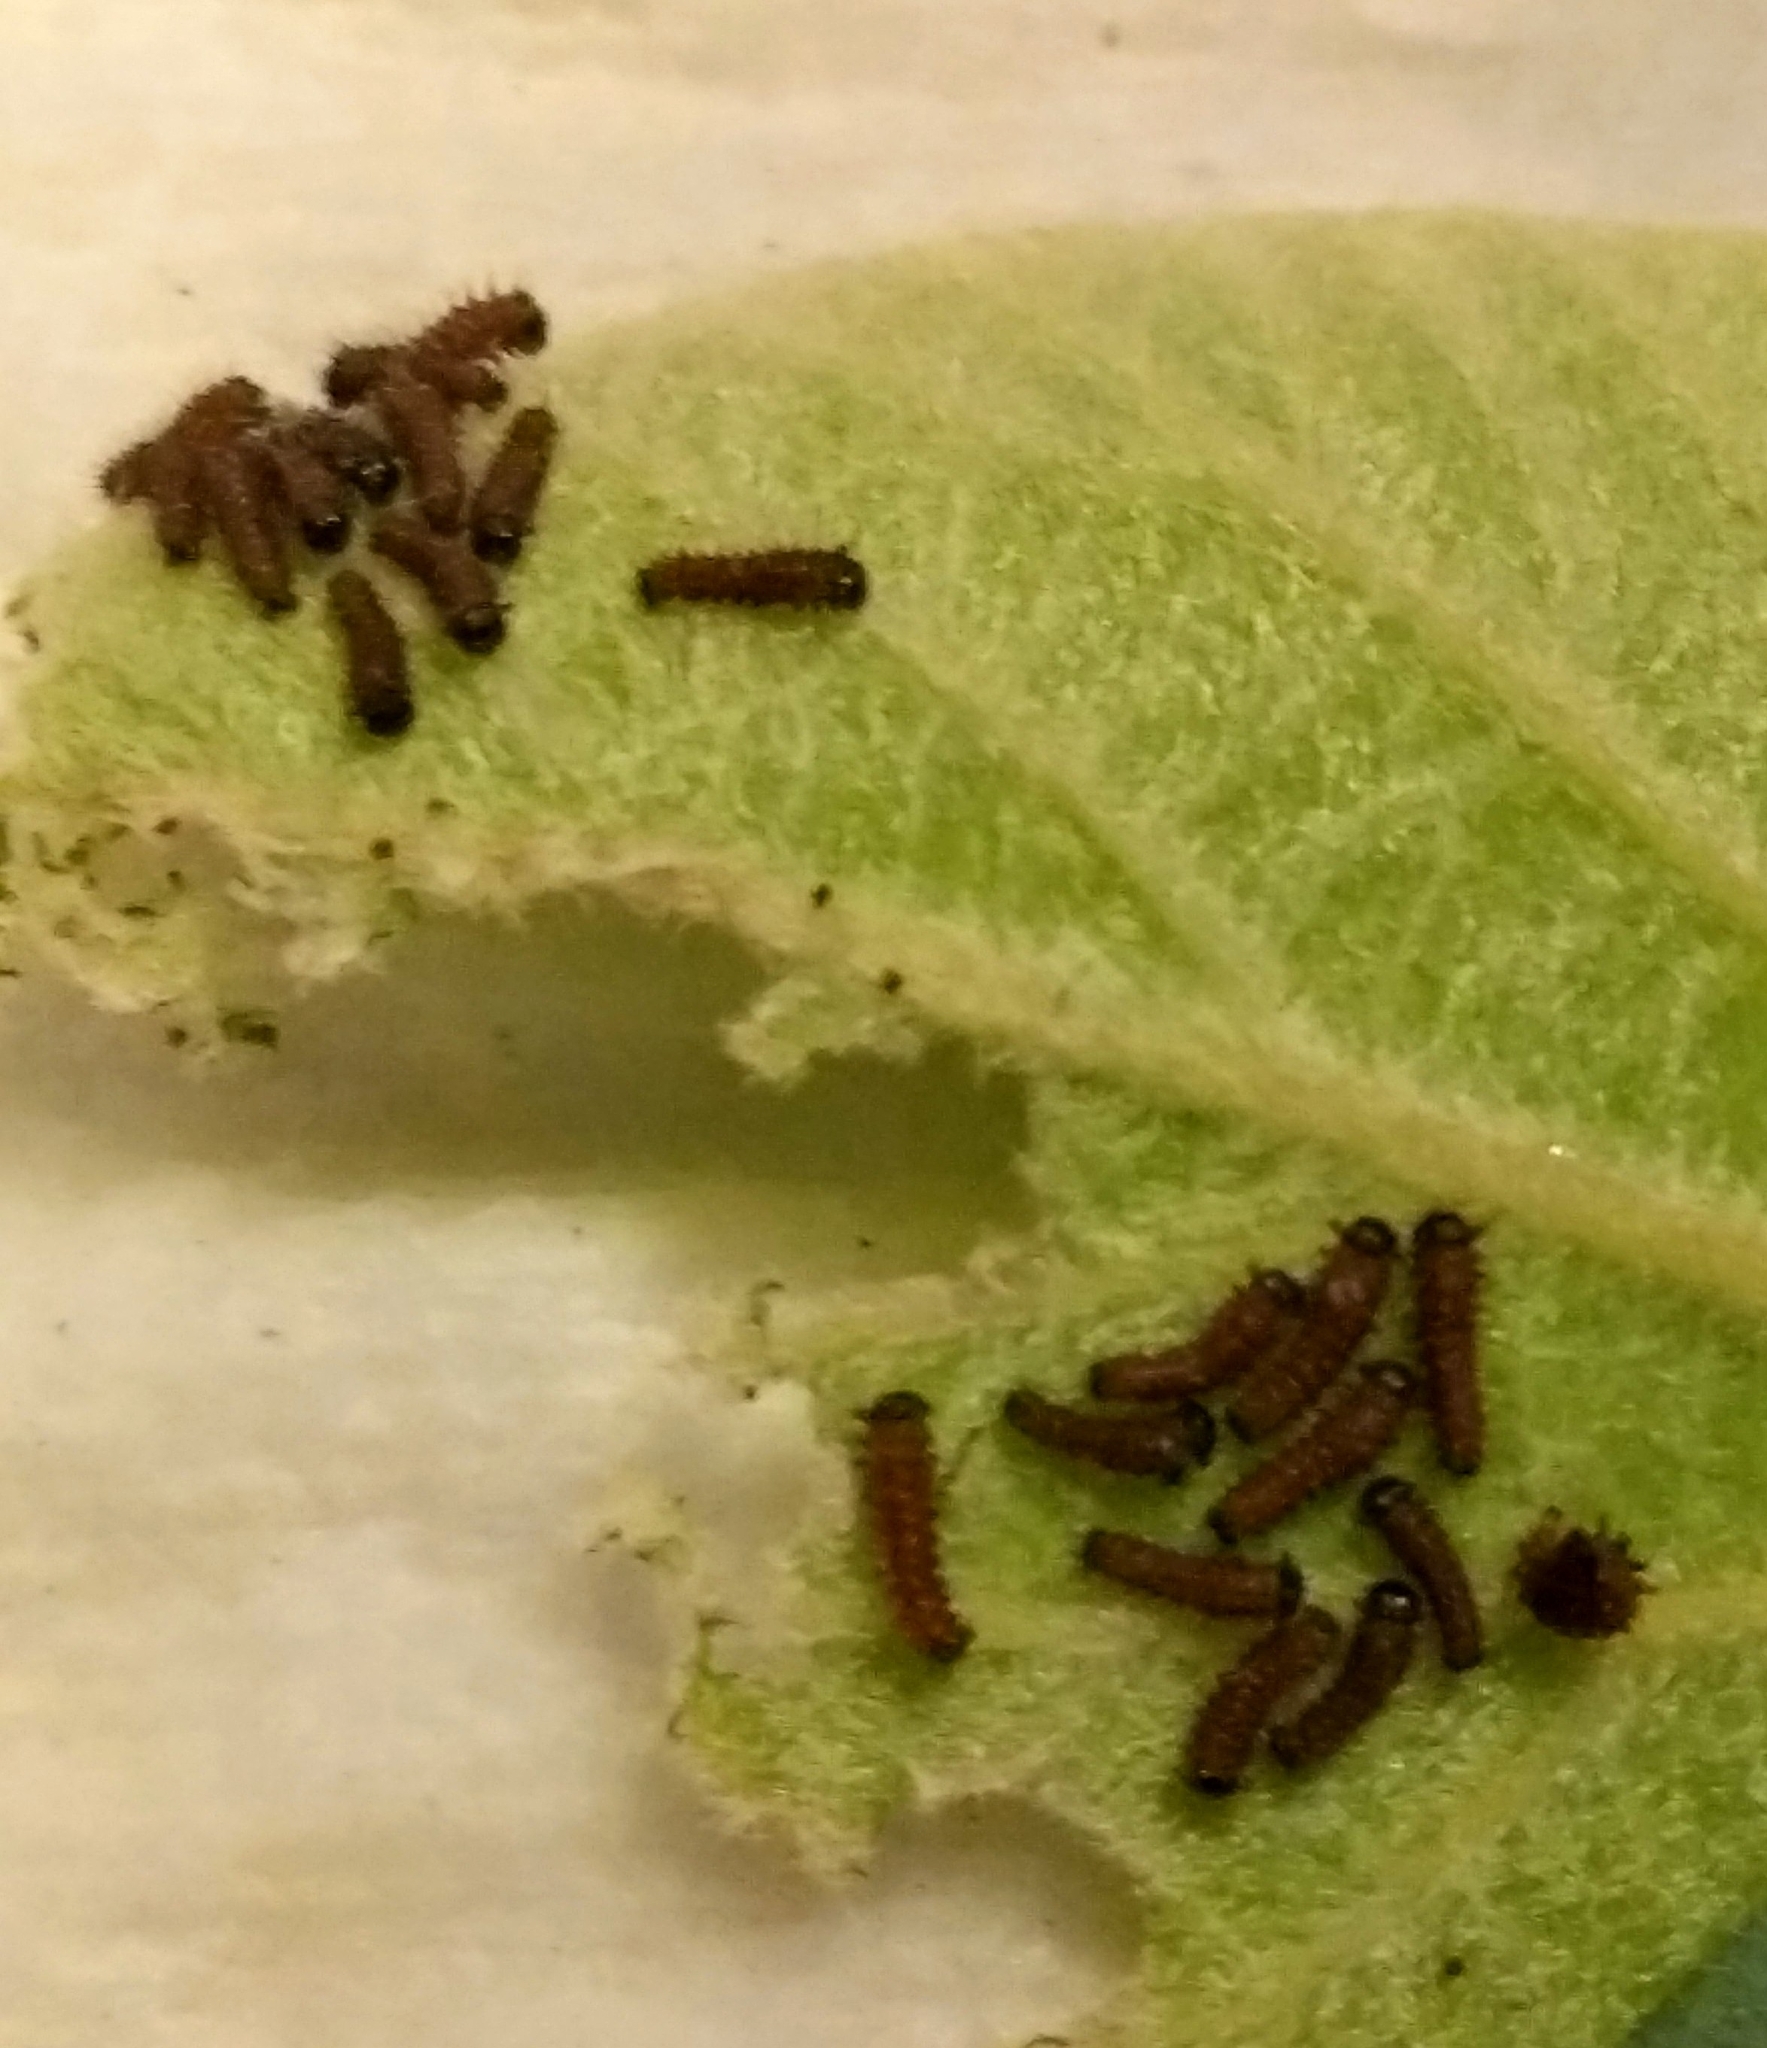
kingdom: Animalia
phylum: Arthropoda
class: Insecta
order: Lepidoptera
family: Papilionidae
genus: Battus
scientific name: Battus philenor
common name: Pipevine swallowtail
